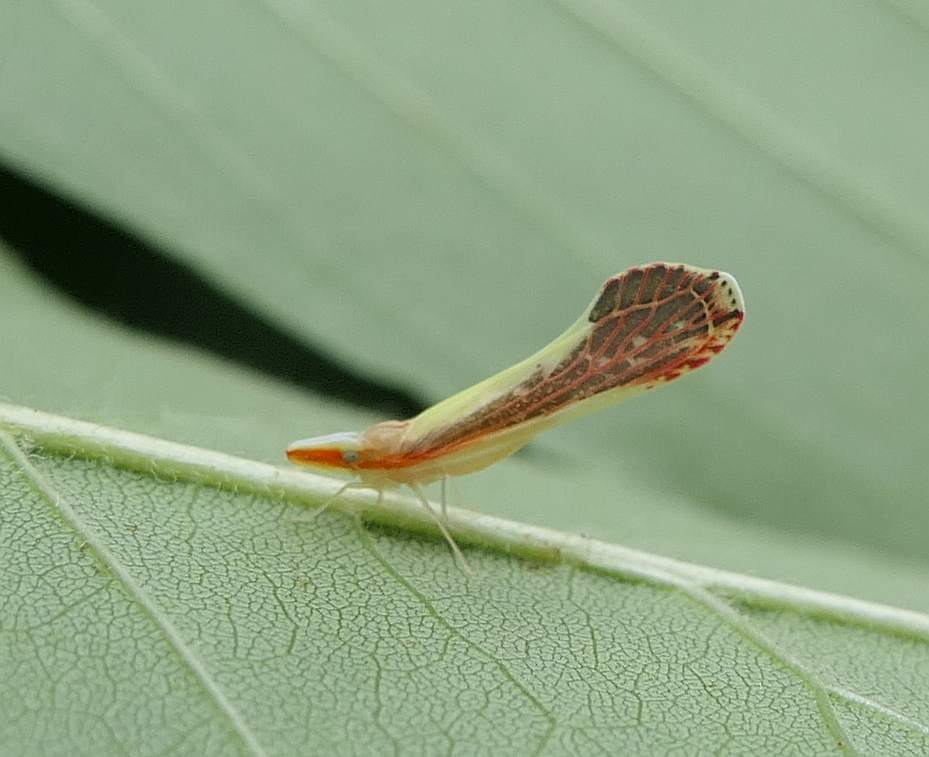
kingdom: Animalia
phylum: Arthropoda
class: Insecta
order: Hemiptera
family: Derbidae
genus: Shellenius
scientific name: Shellenius ballii
